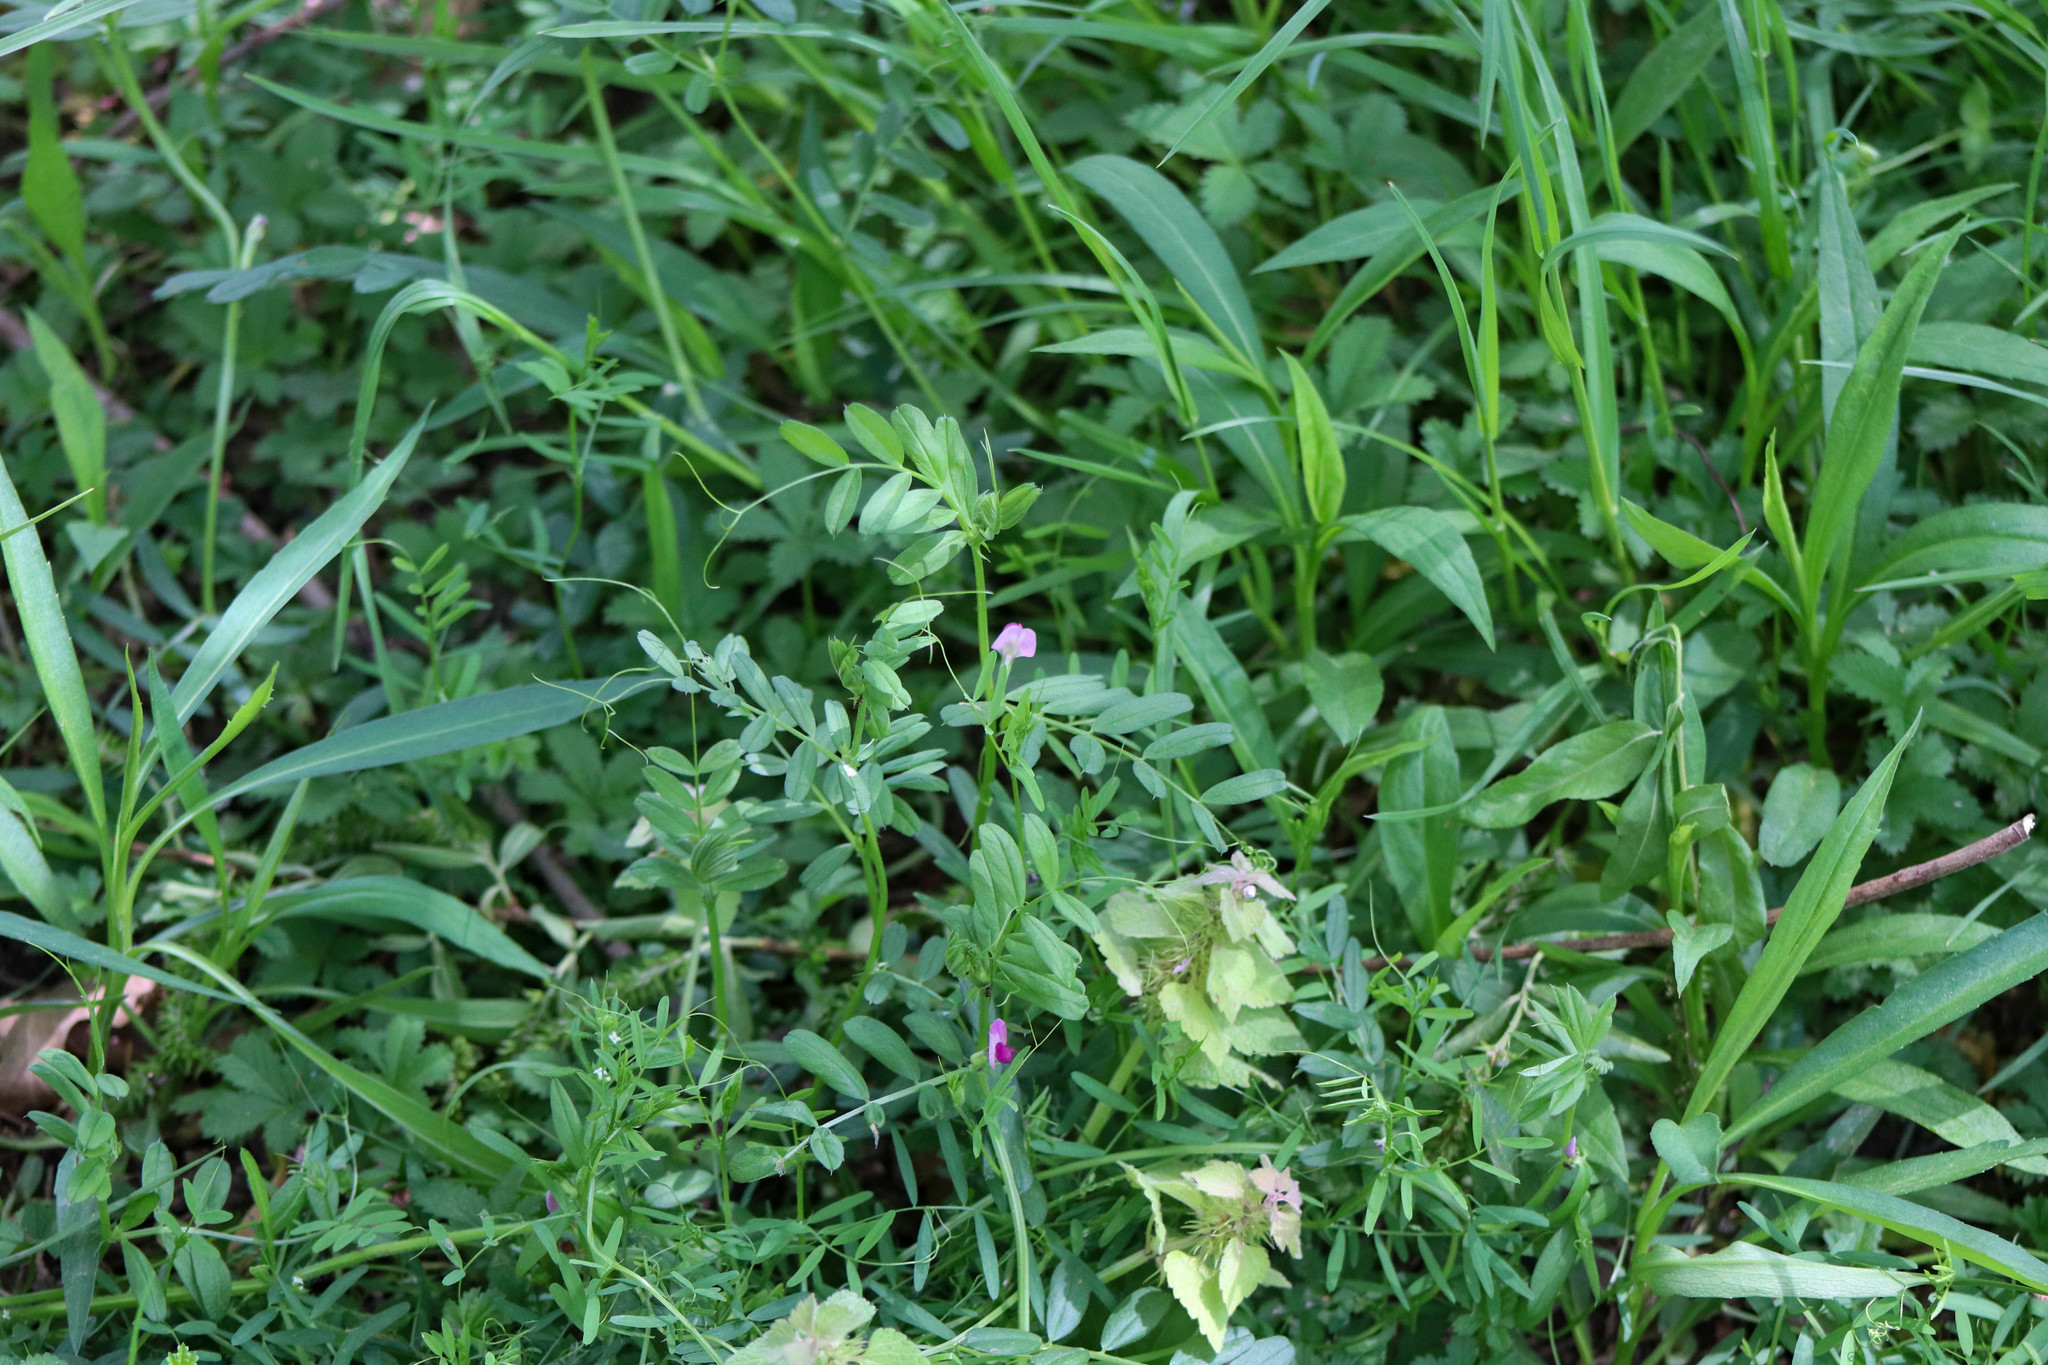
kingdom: Plantae
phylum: Tracheophyta
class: Magnoliopsida
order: Fabales
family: Fabaceae
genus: Vicia
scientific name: Vicia sativa
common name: Garden vetch
